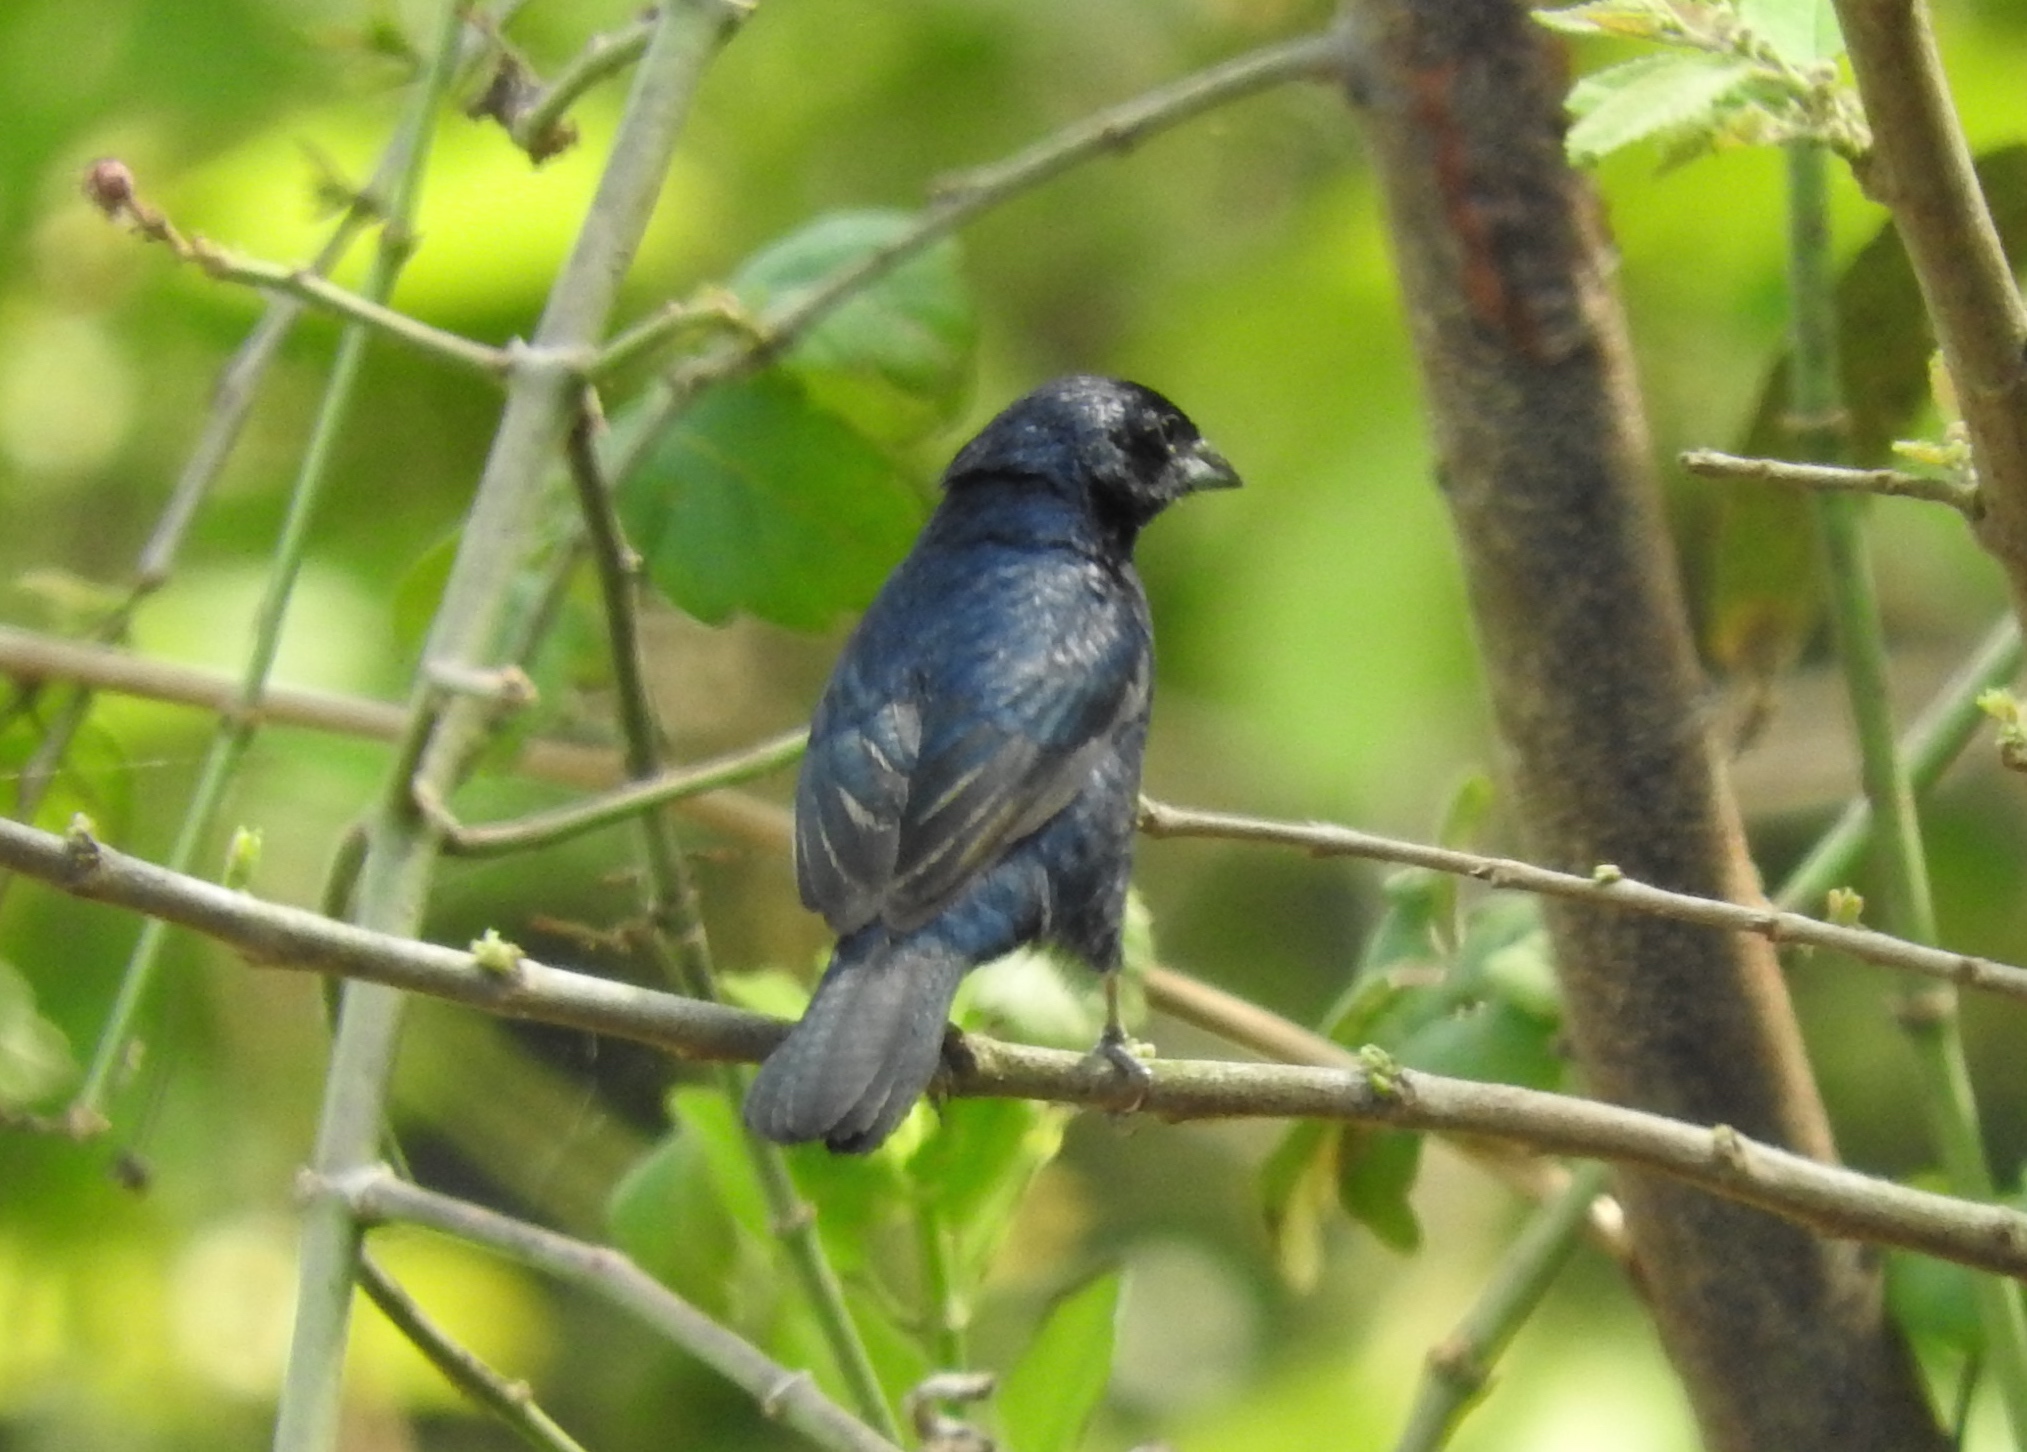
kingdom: Animalia
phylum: Chordata
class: Aves
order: Passeriformes
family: Thraupidae
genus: Volatinia
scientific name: Volatinia jacarina
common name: Blue-black grassquit
